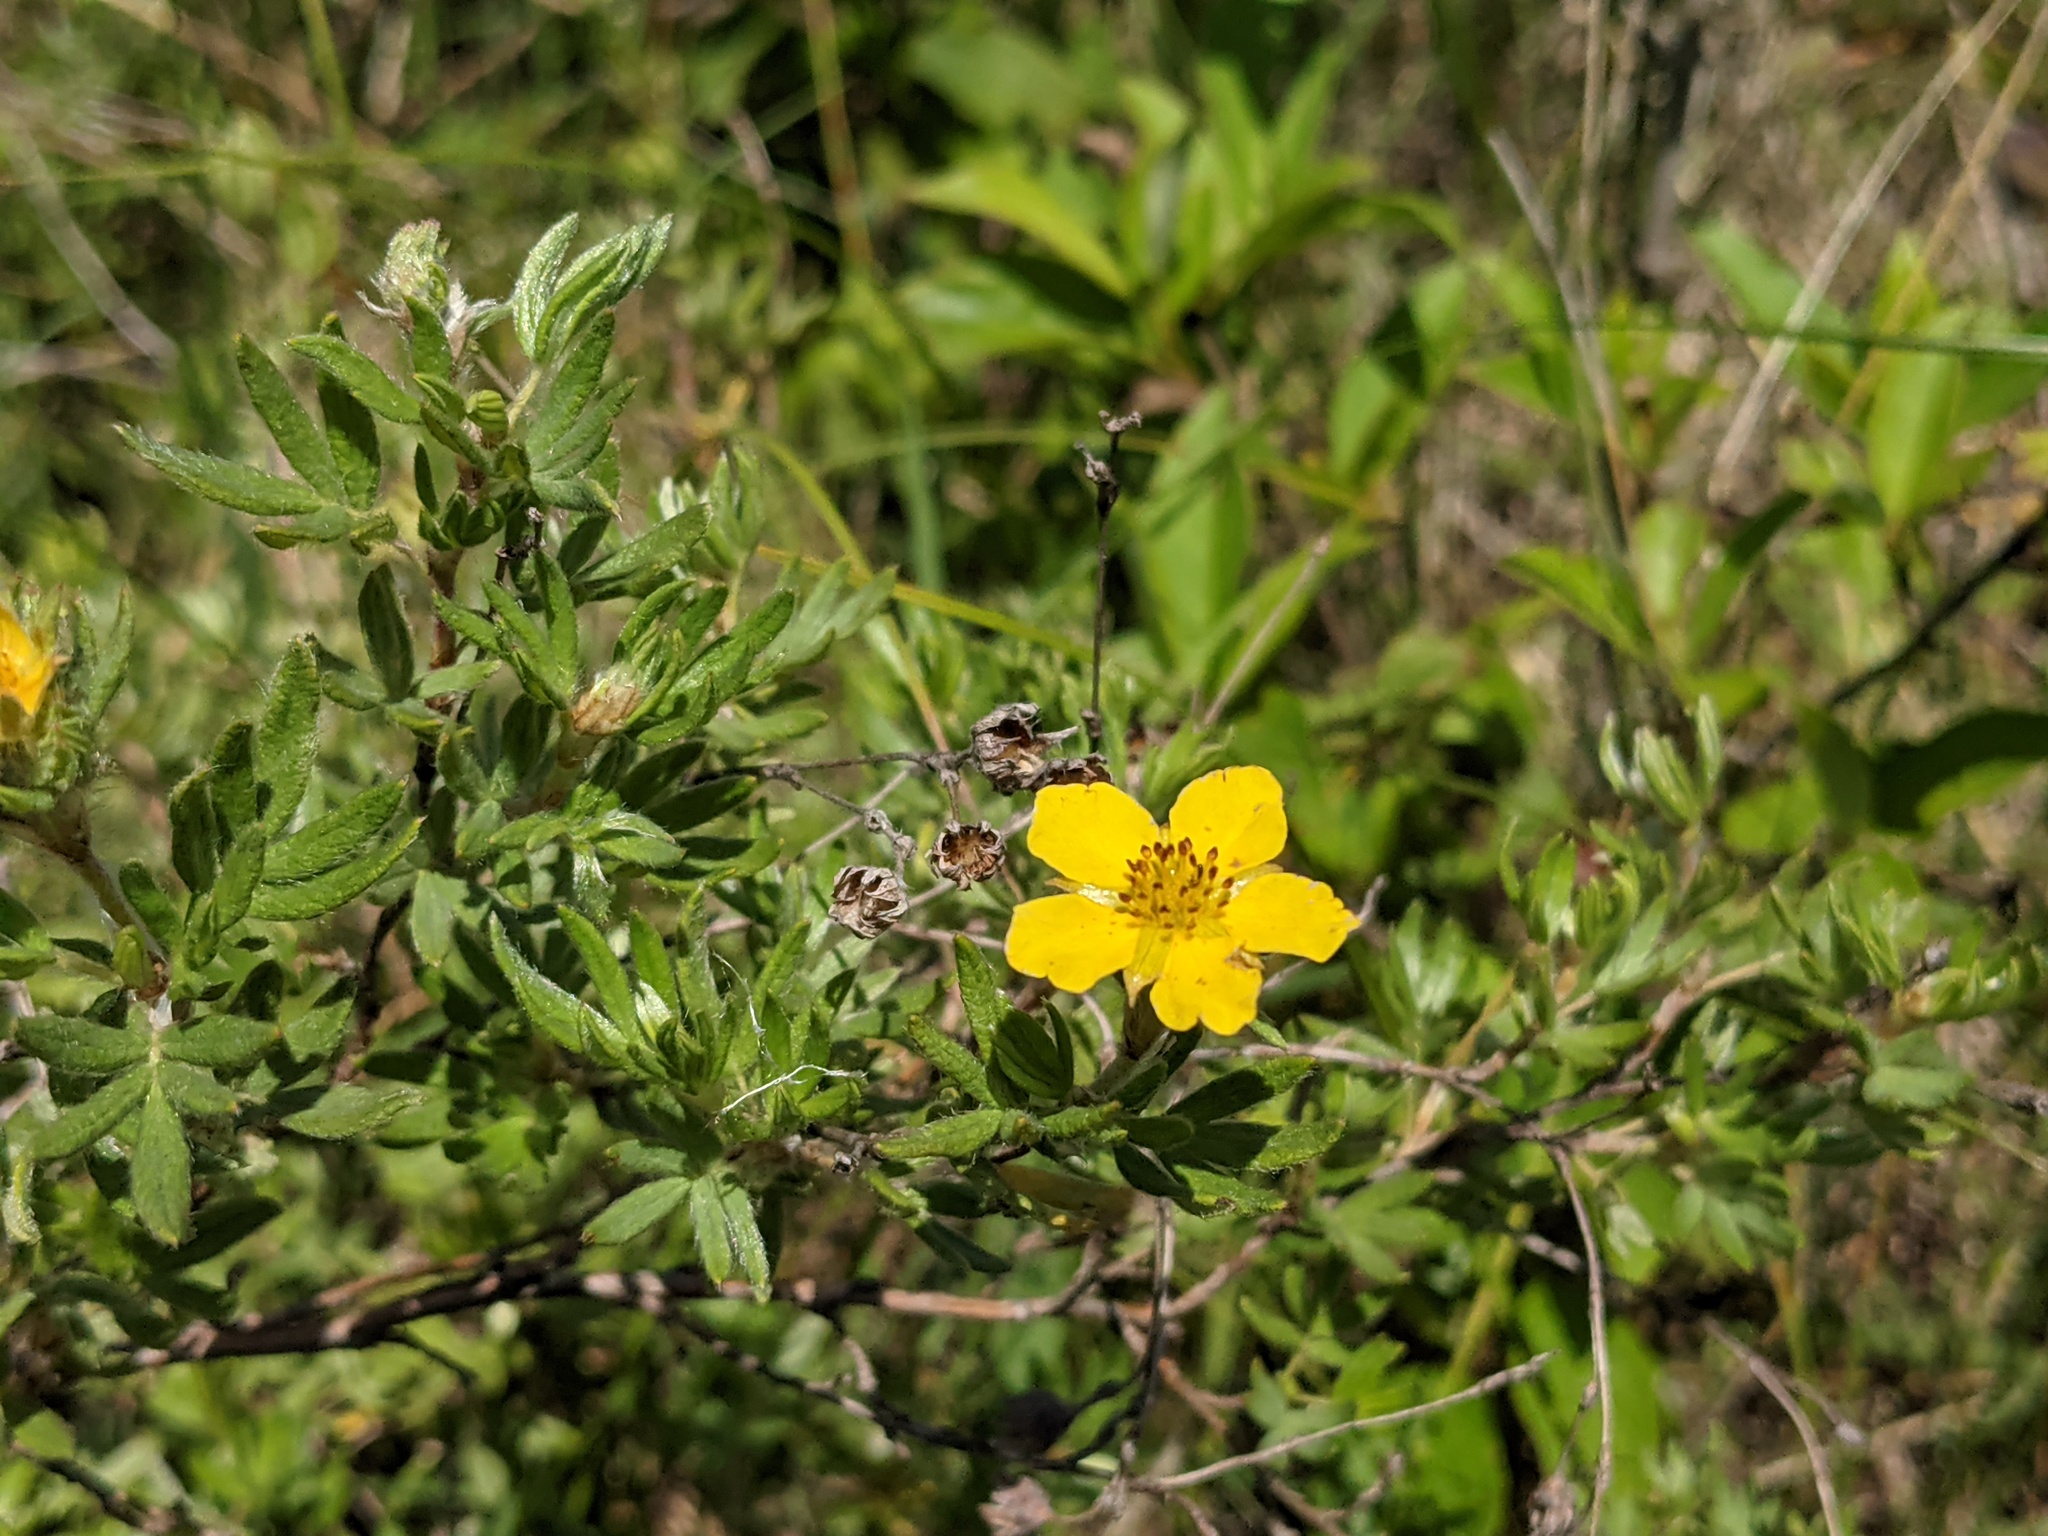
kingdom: Plantae
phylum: Tracheophyta
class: Magnoliopsida
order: Rosales
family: Rosaceae
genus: Dasiphora
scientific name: Dasiphora fruticosa
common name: Shrubby cinquefoil
